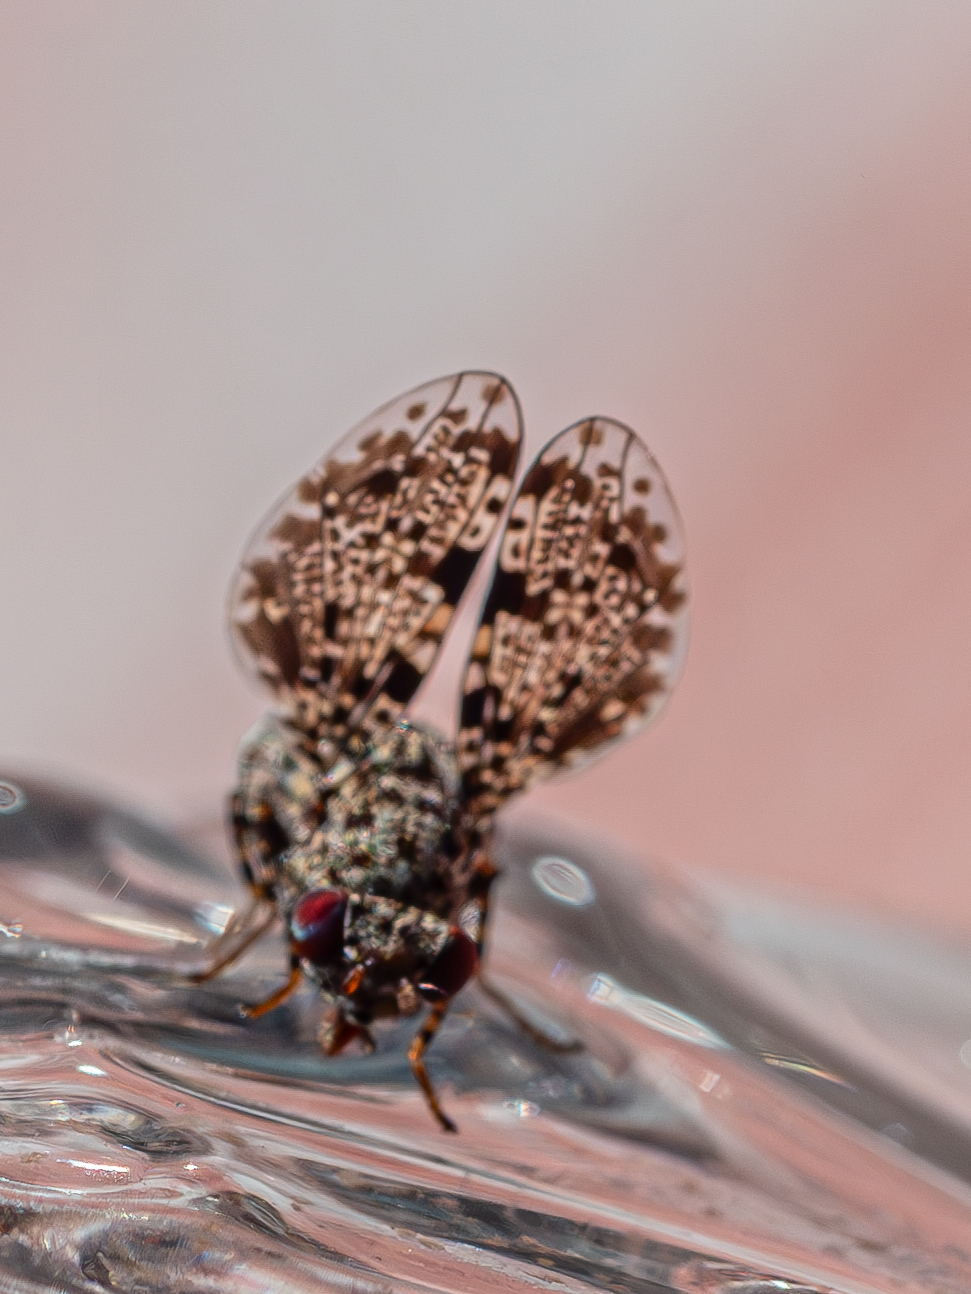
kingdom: Animalia
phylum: Arthropoda
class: Insecta
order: Diptera
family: Ulidiidae
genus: Callopistromyia
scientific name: Callopistromyia annulipes
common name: Peacock fly
